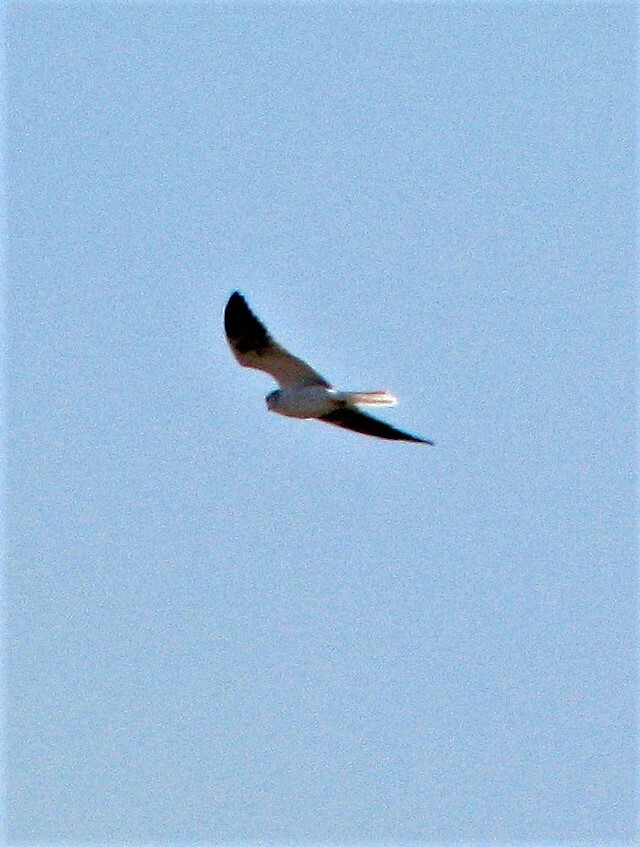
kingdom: Animalia
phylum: Chordata
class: Aves
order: Accipitriformes
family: Accipitridae
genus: Elanus
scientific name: Elanus leucurus
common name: White-tailed kite
